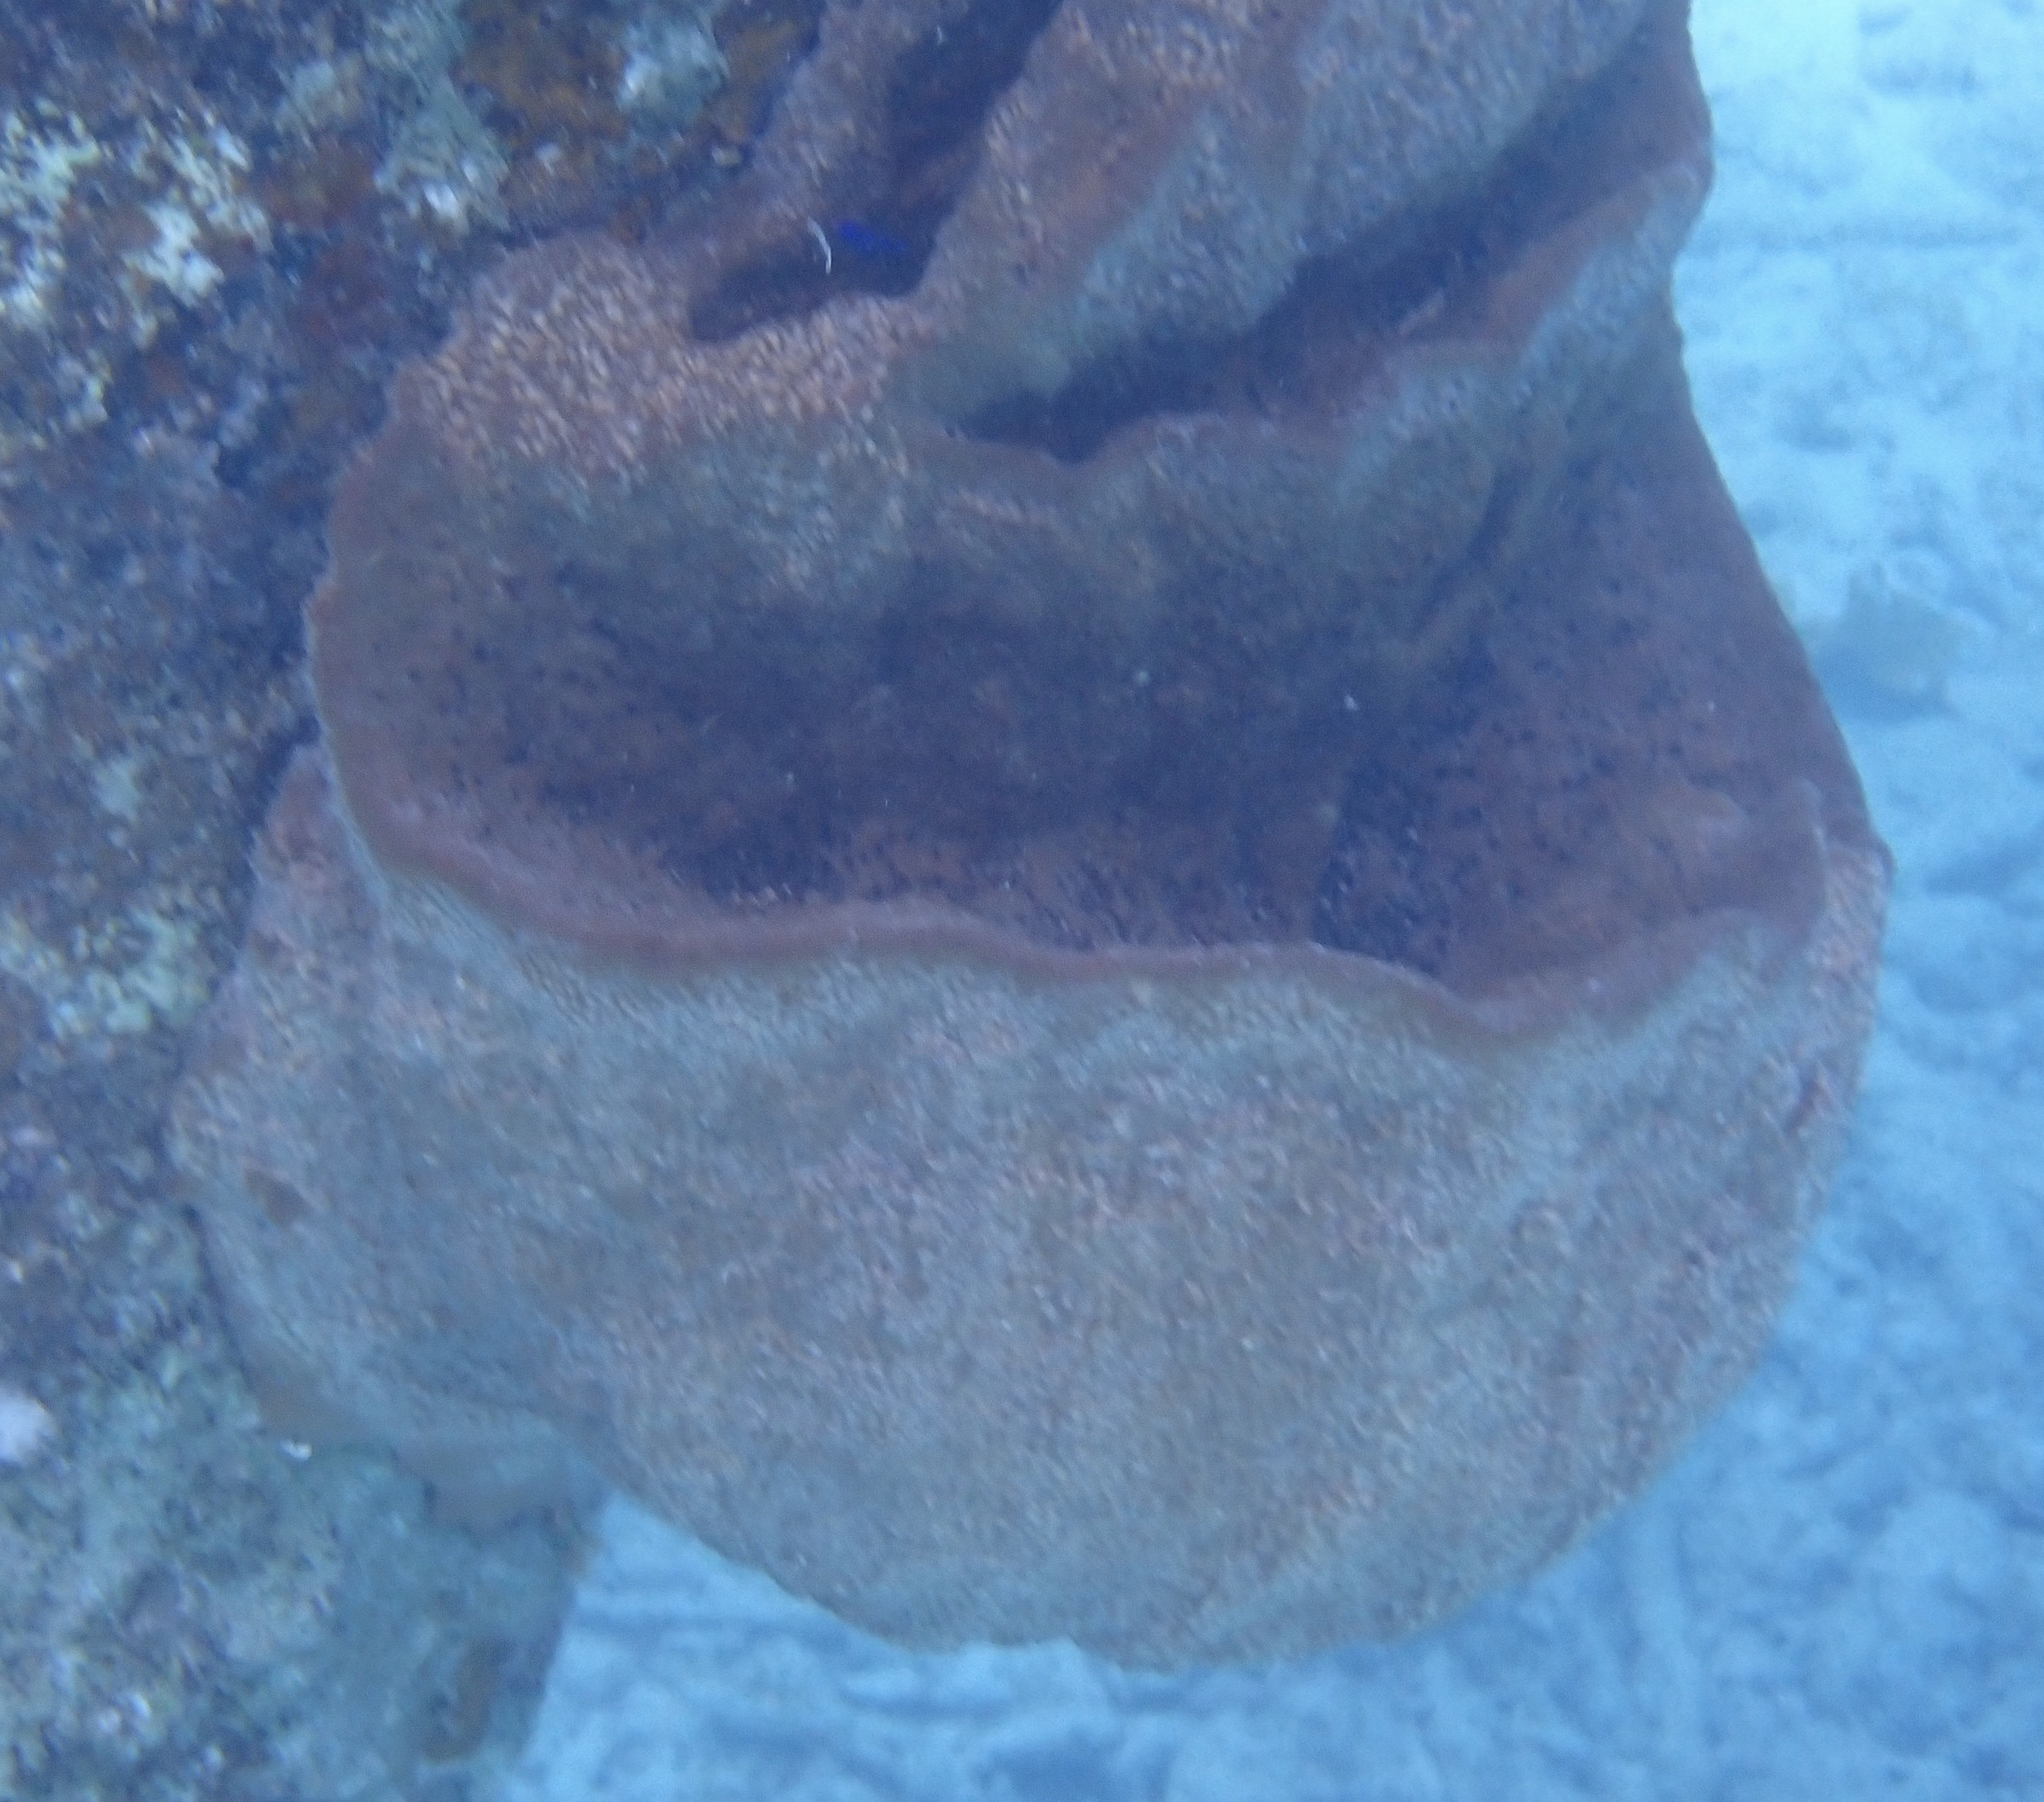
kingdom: Animalia
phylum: Porifera
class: Demospongiae
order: Dictyoceratida
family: Irciniidae
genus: Ircinia
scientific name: Ircinia campana
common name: Vase sponge
